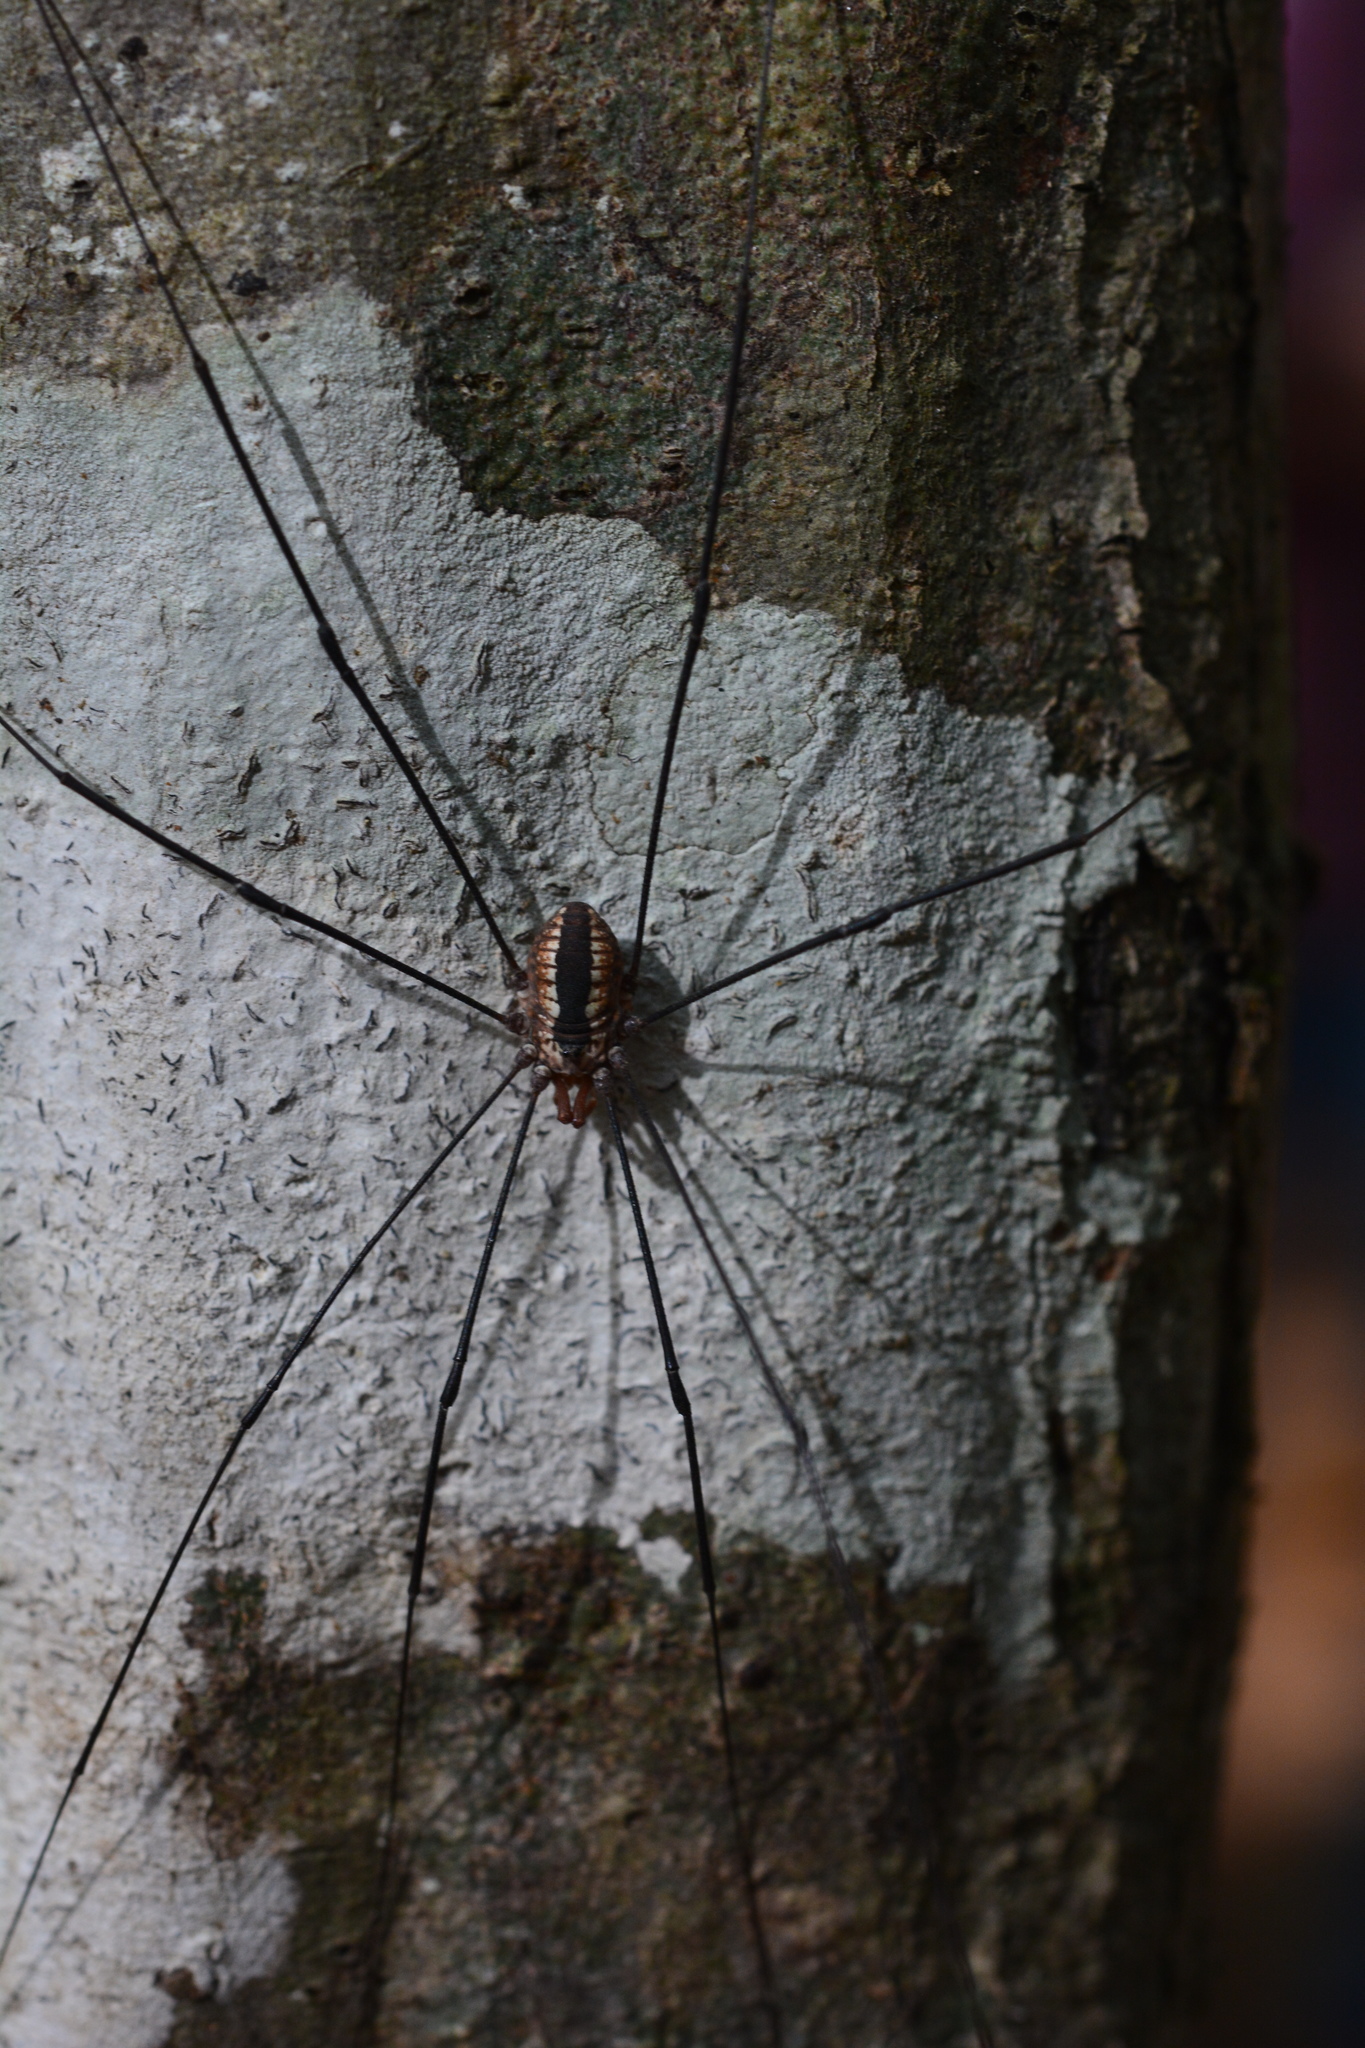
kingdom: Animalia
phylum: Arthropoda
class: Arachnida
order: Opiliones
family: Sclerosomatidae
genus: Leiobunum
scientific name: Leiobunum vittatum
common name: Eastern harvestman
